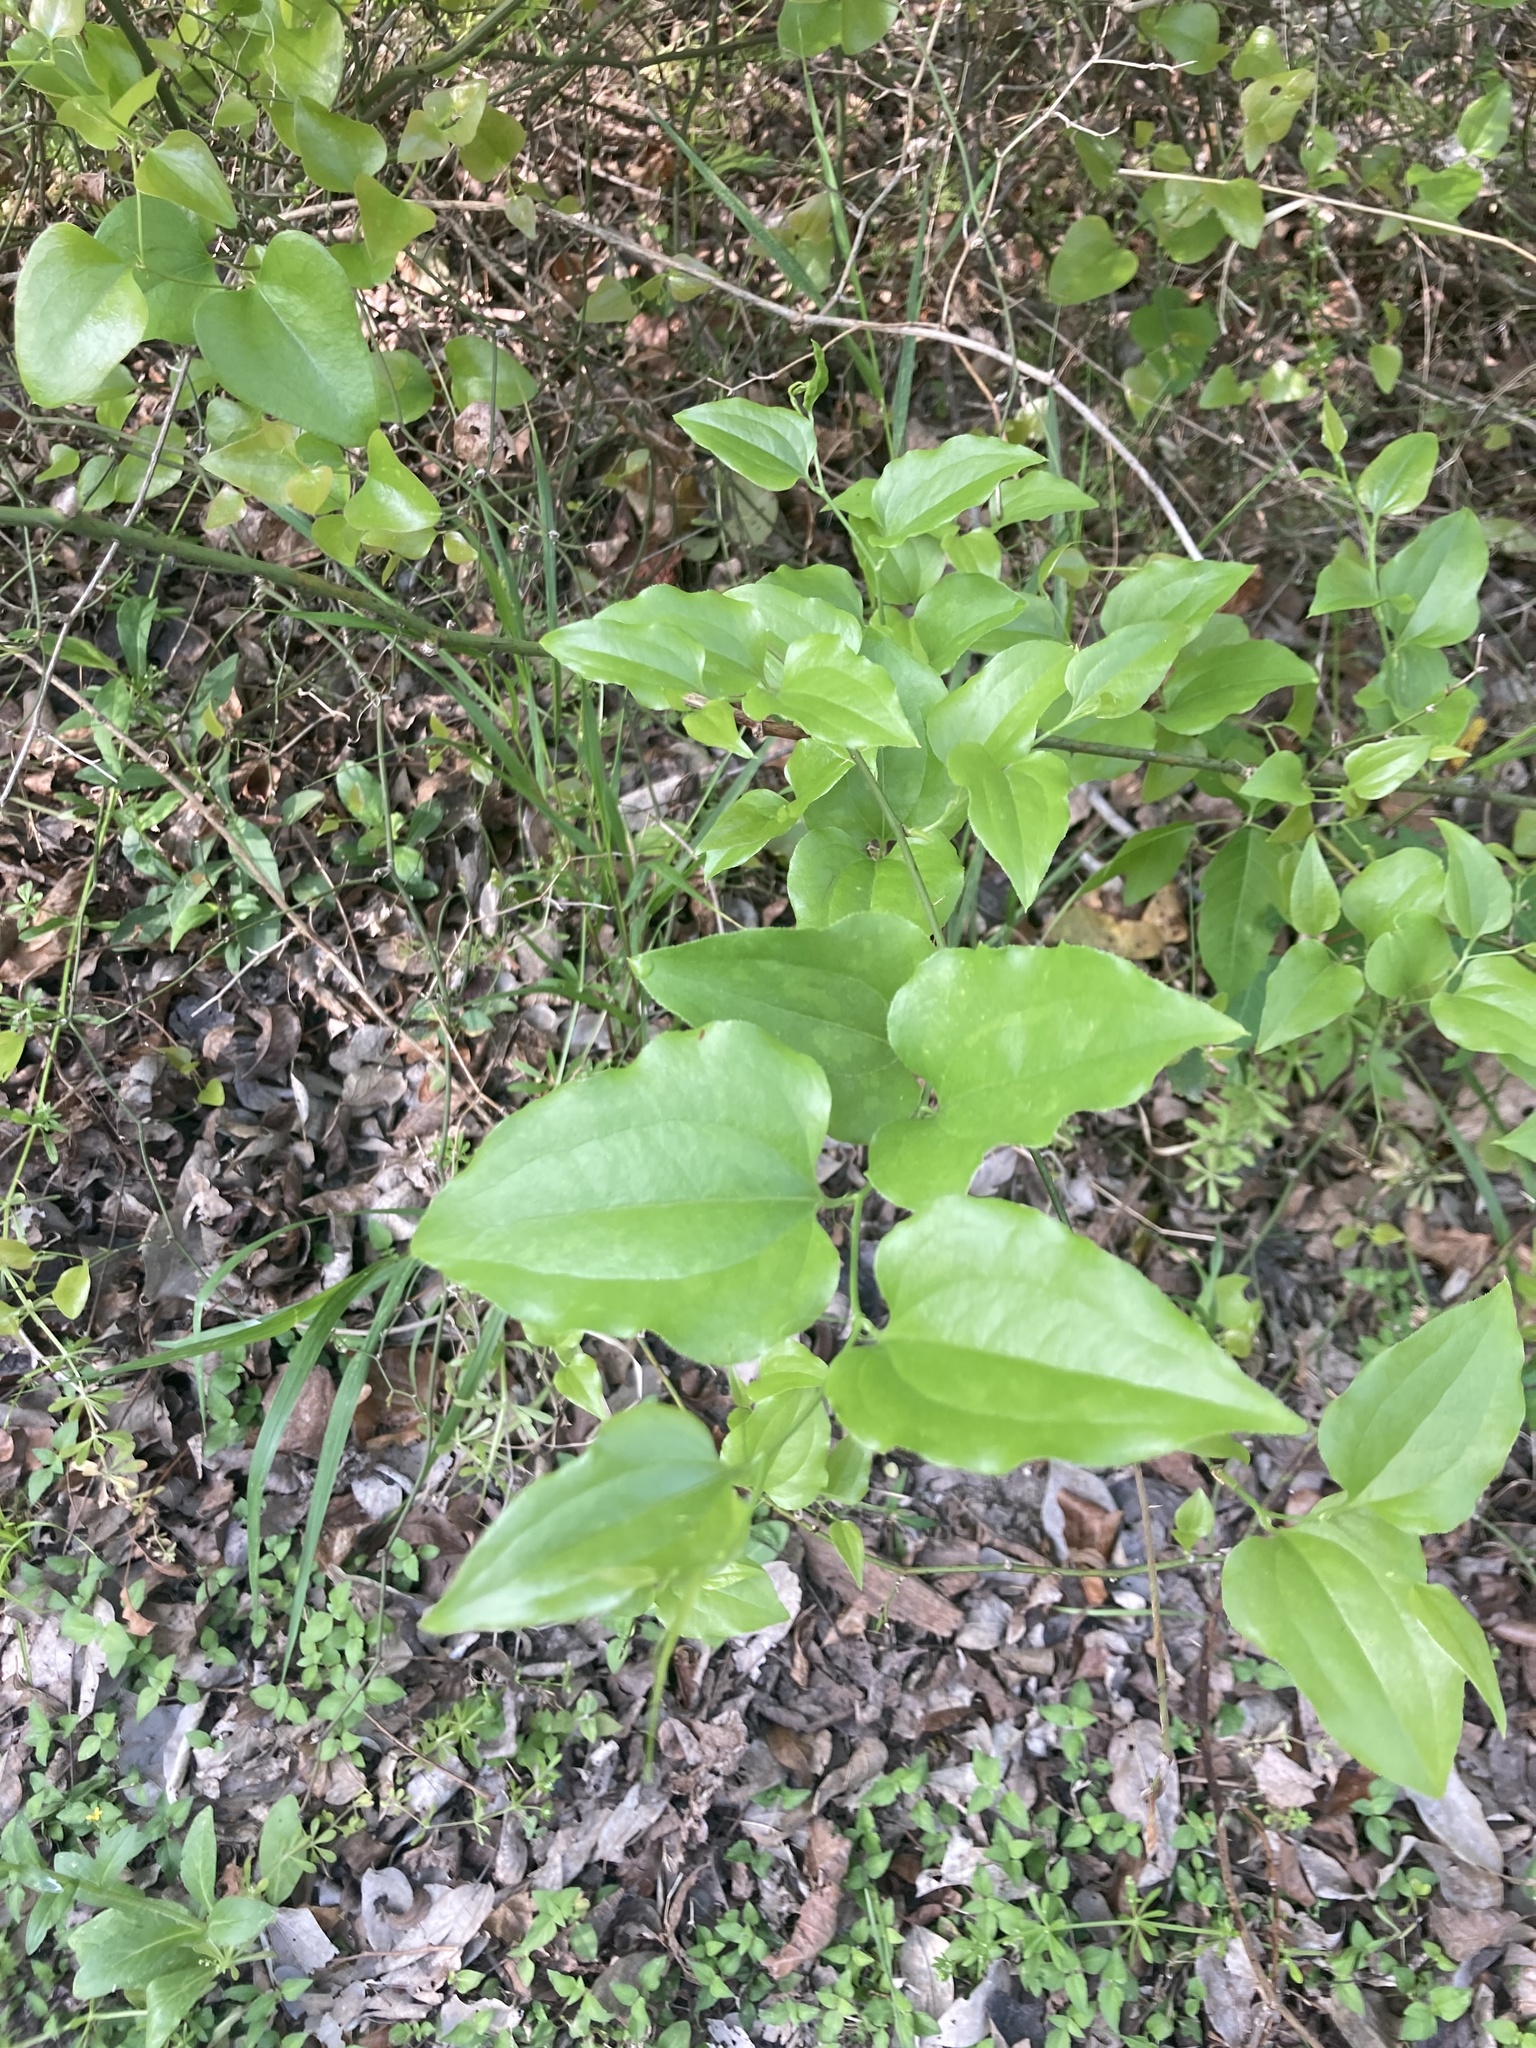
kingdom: Plantae
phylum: Tracheophyta
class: Liliopsida
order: Liliales
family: Smilacaceae
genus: Smilax
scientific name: Smilax tamnoides
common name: Hellfetter
